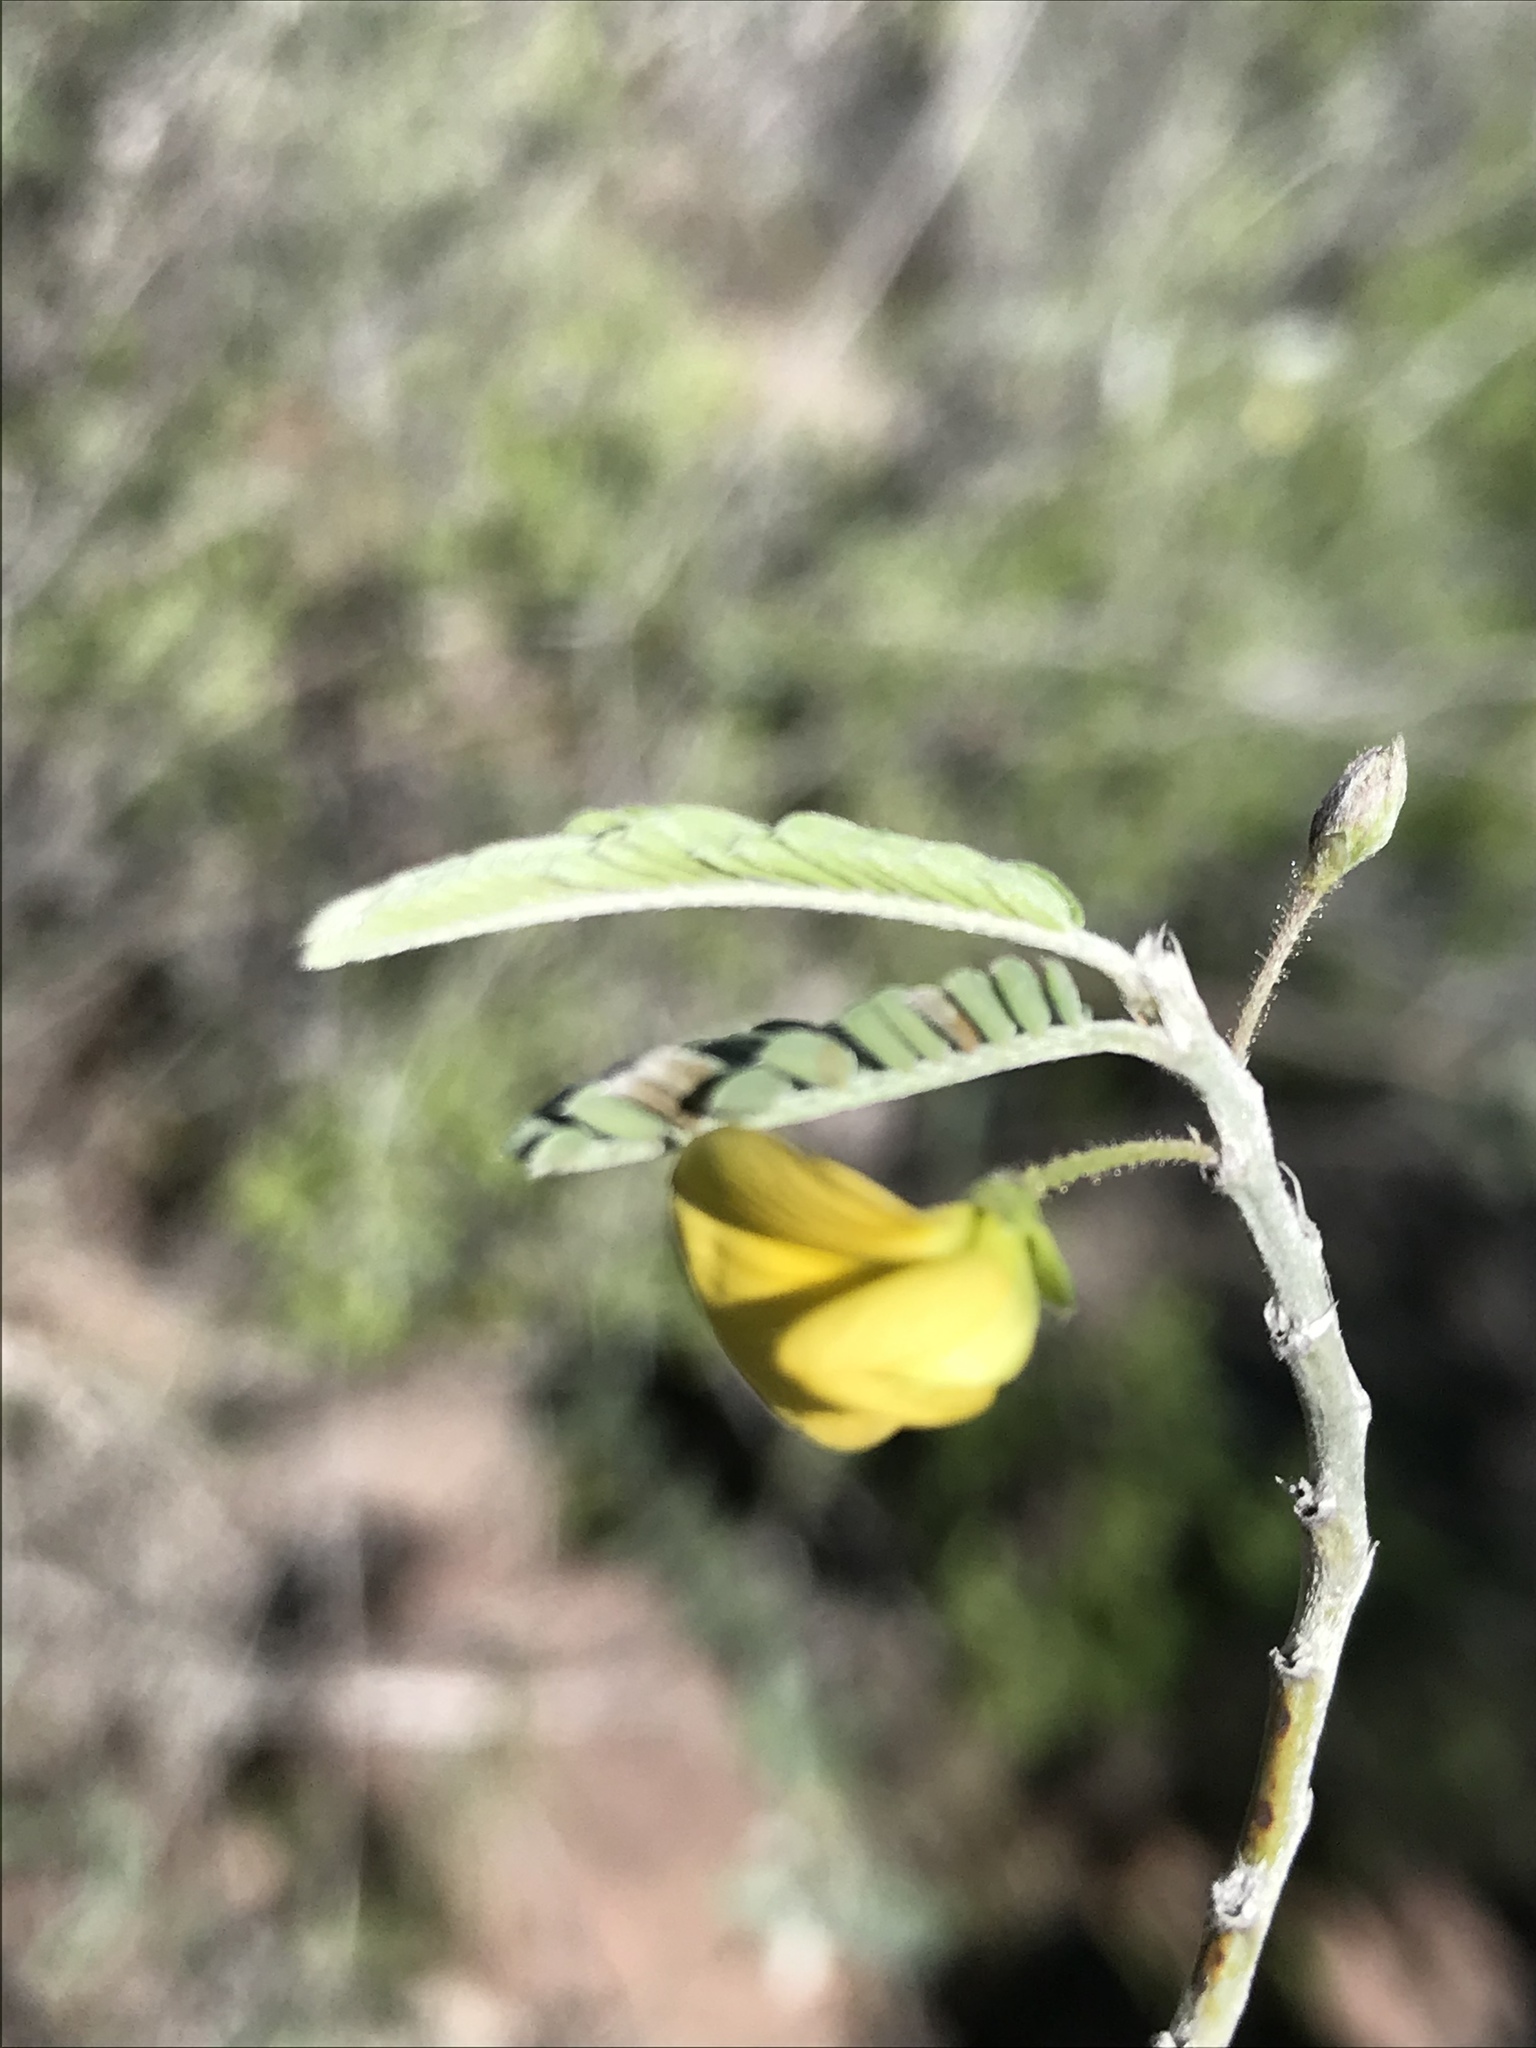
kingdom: Plantae
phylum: Tracheophyta
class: Magnoliopsida
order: Fabales
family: Fabaceae
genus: Ctenodon
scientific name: Ctenodon niveus
